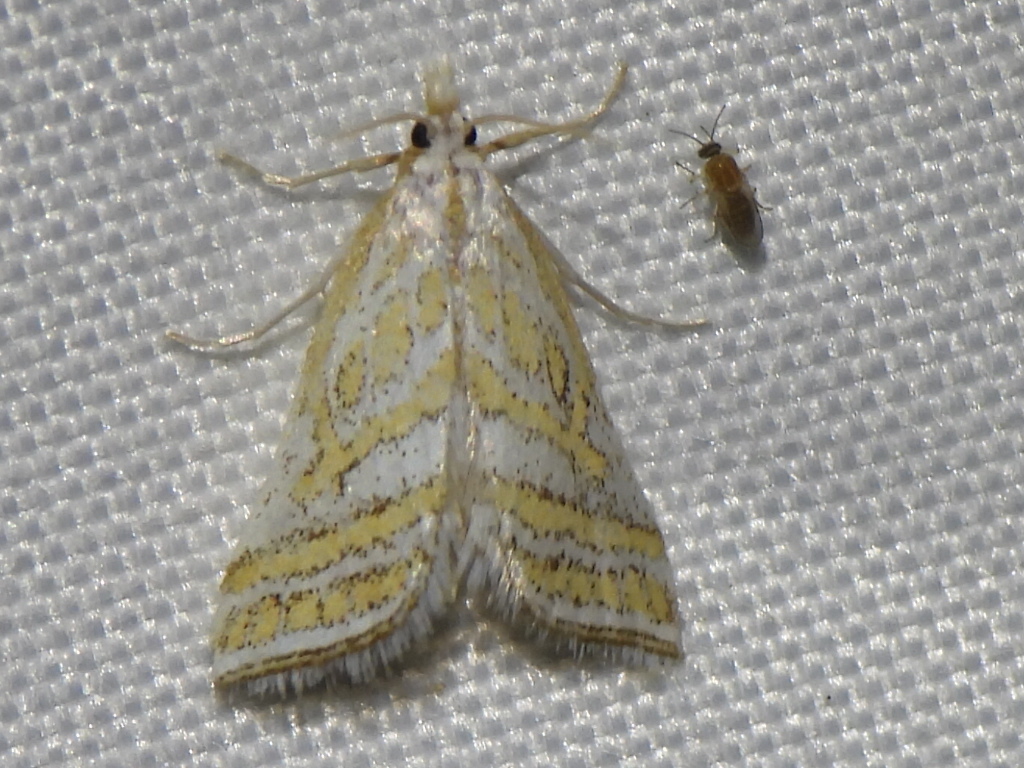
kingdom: Animalia
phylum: Arthropoda
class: Insecta
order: Lepidoptera
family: Crambidae
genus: Leptosteges
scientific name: Leptosteges
